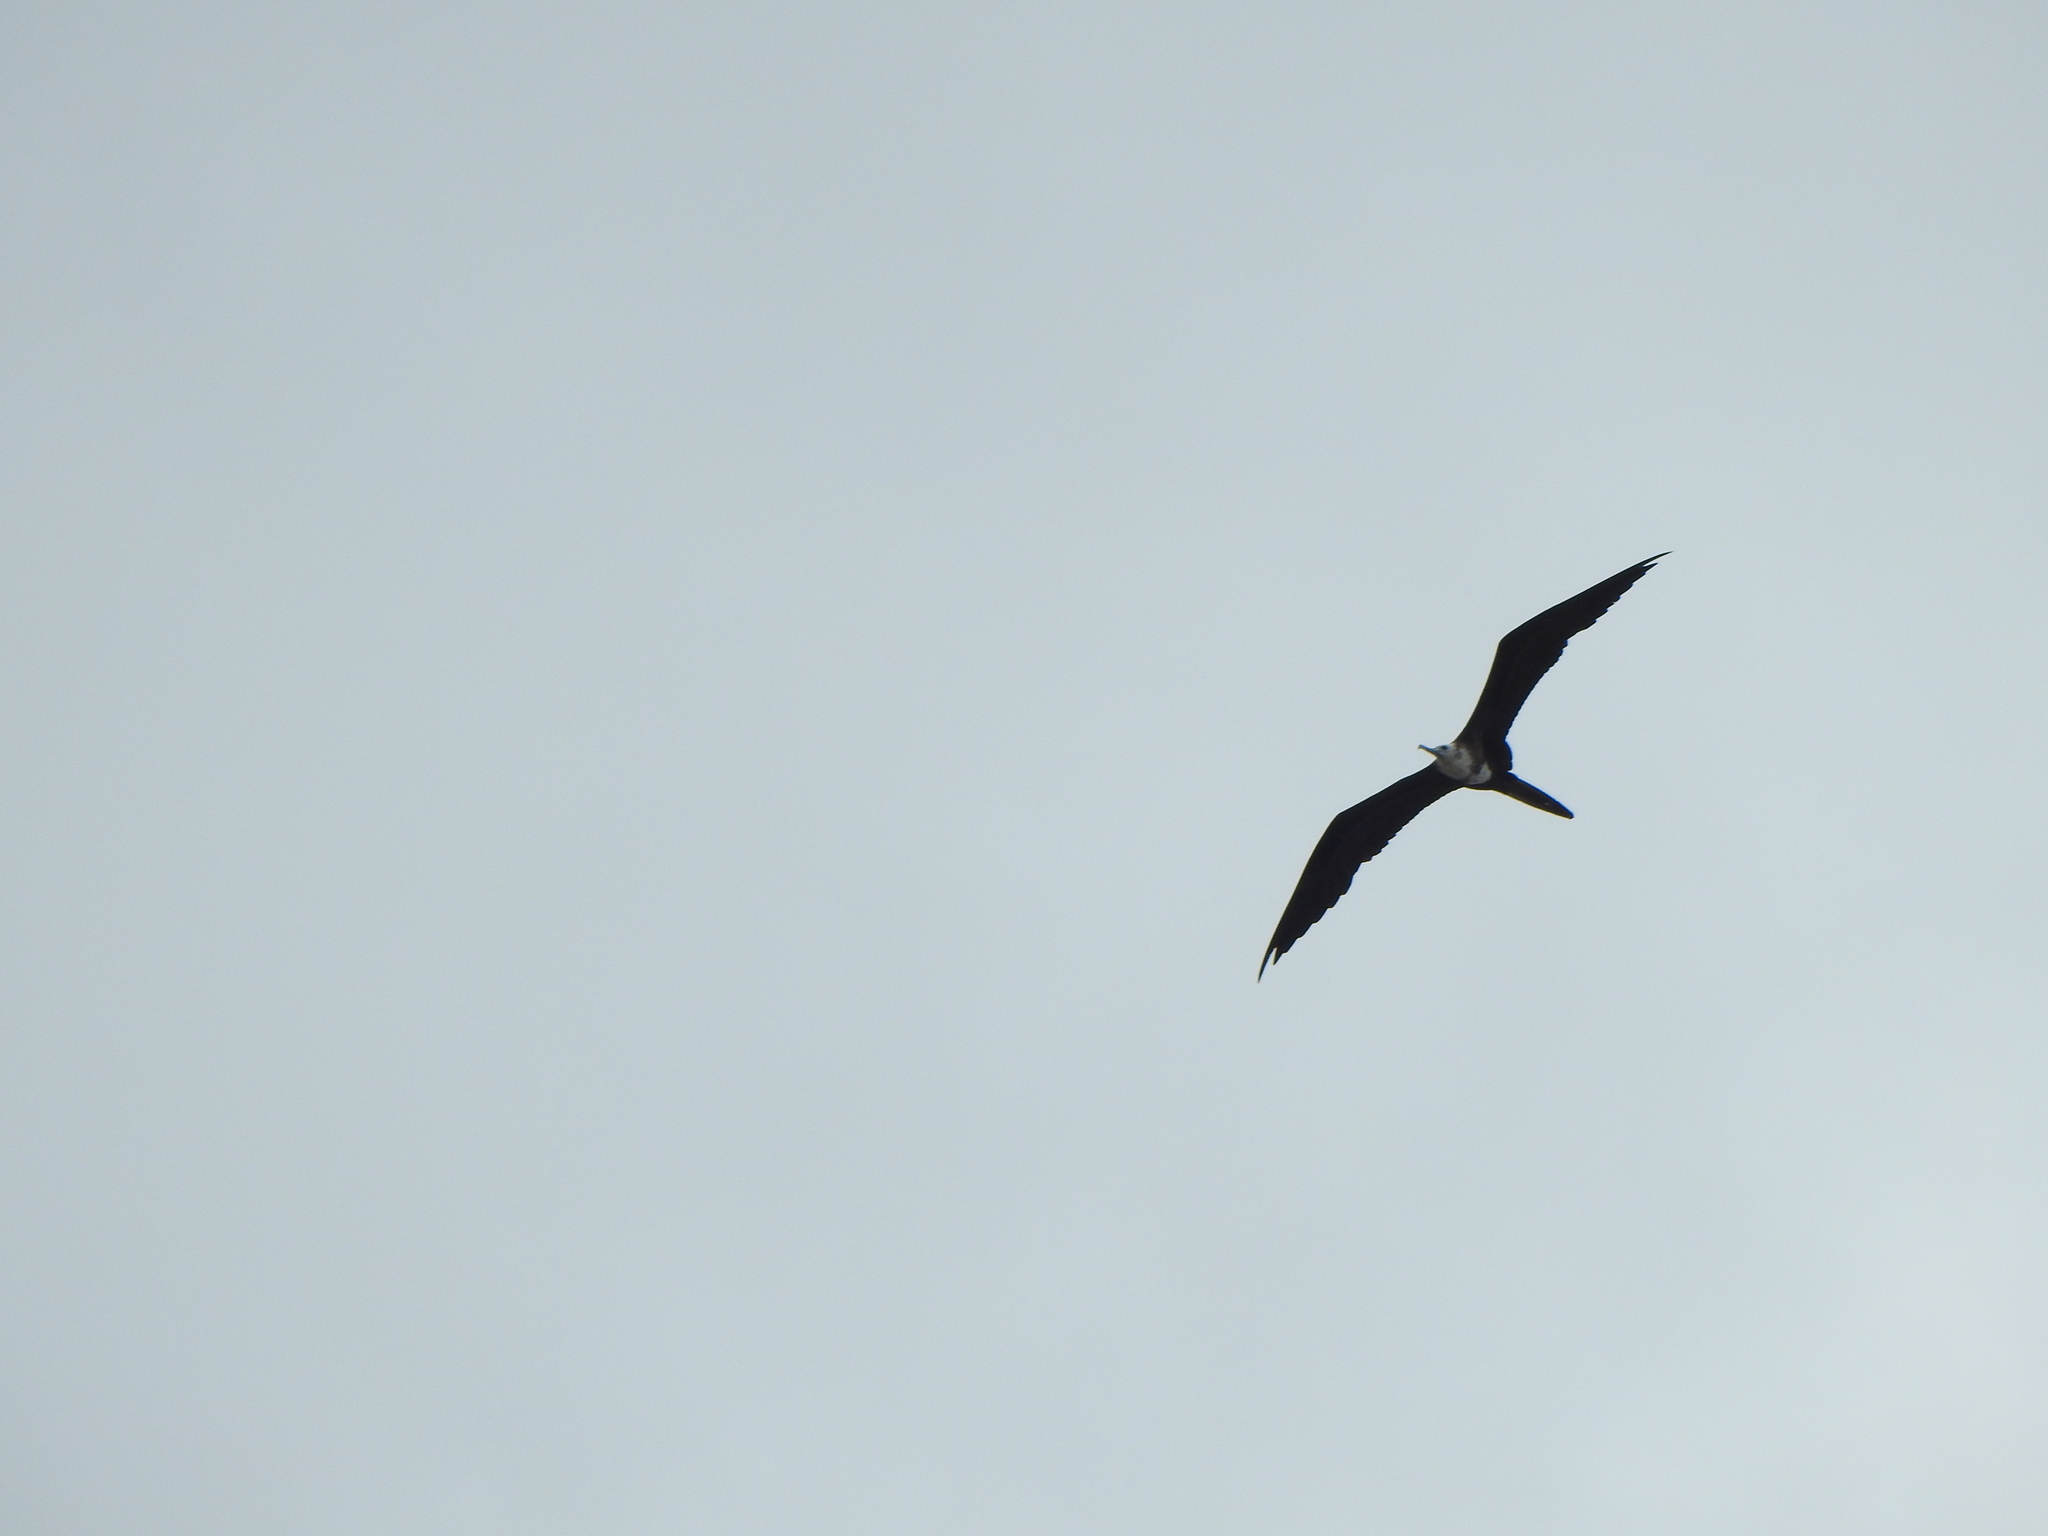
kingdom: Animalia
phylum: Chordata
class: Aves
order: Suliformes
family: Fregatidae
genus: Fregata
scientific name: Fregata magnificens
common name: Magnificent frigatebird
